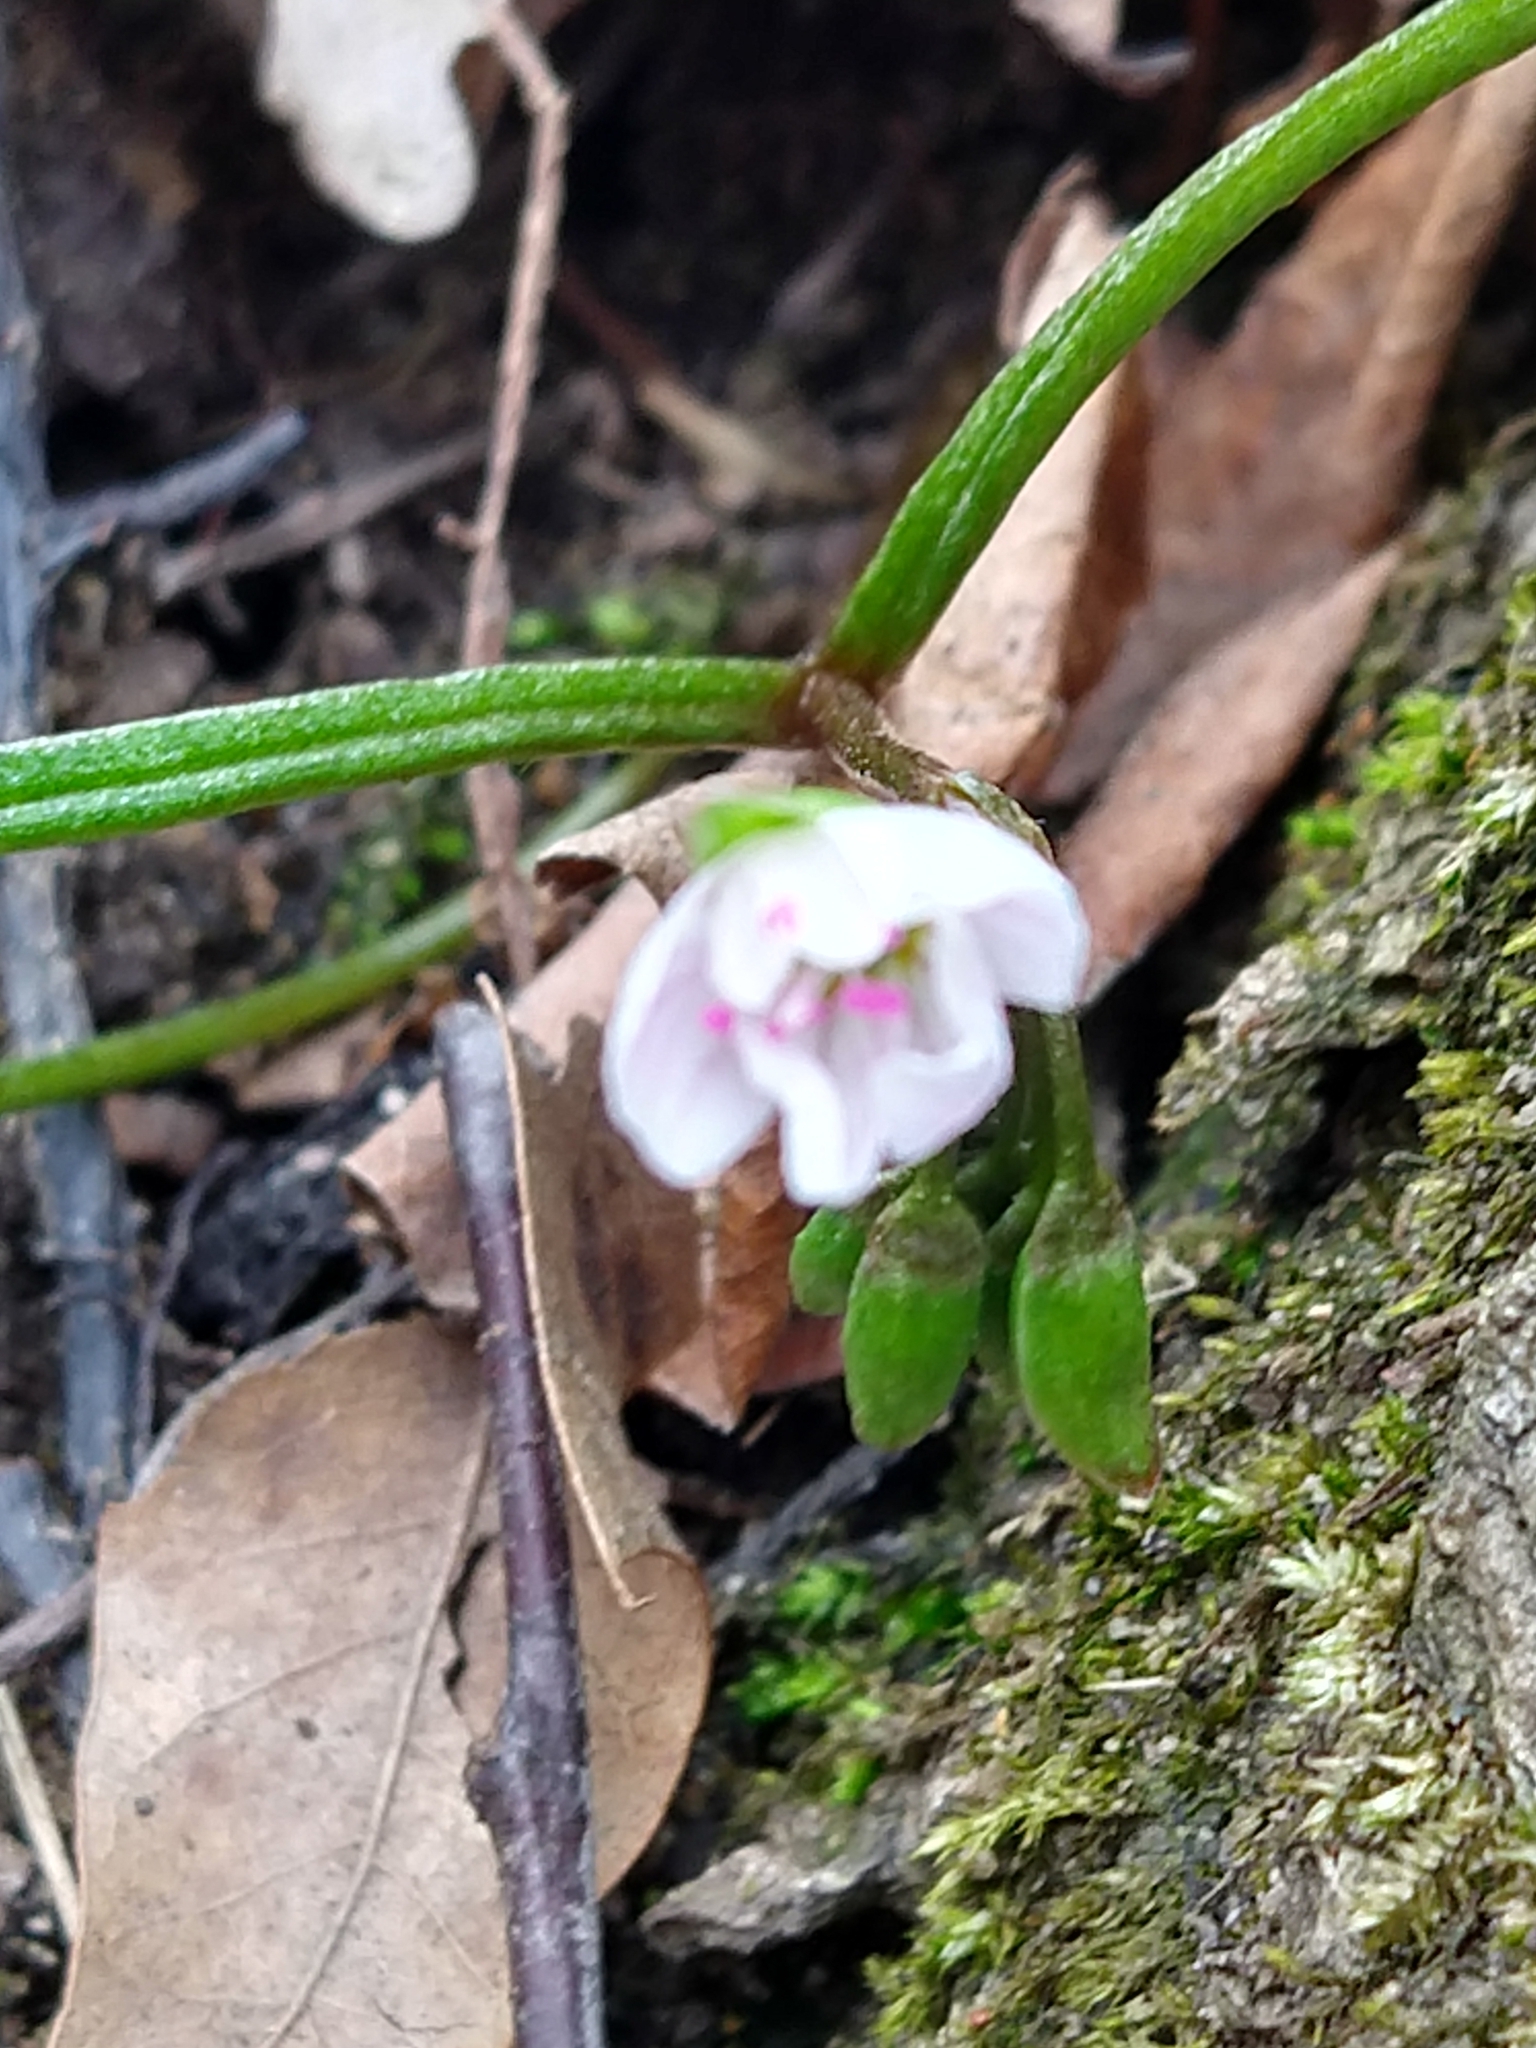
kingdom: Plantae
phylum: Tracheophyta
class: Magnoliopsida
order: Caryophyllales
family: Montiaceae
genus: Claytonia
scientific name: Claytonia virginica
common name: Virginia springbeauty
